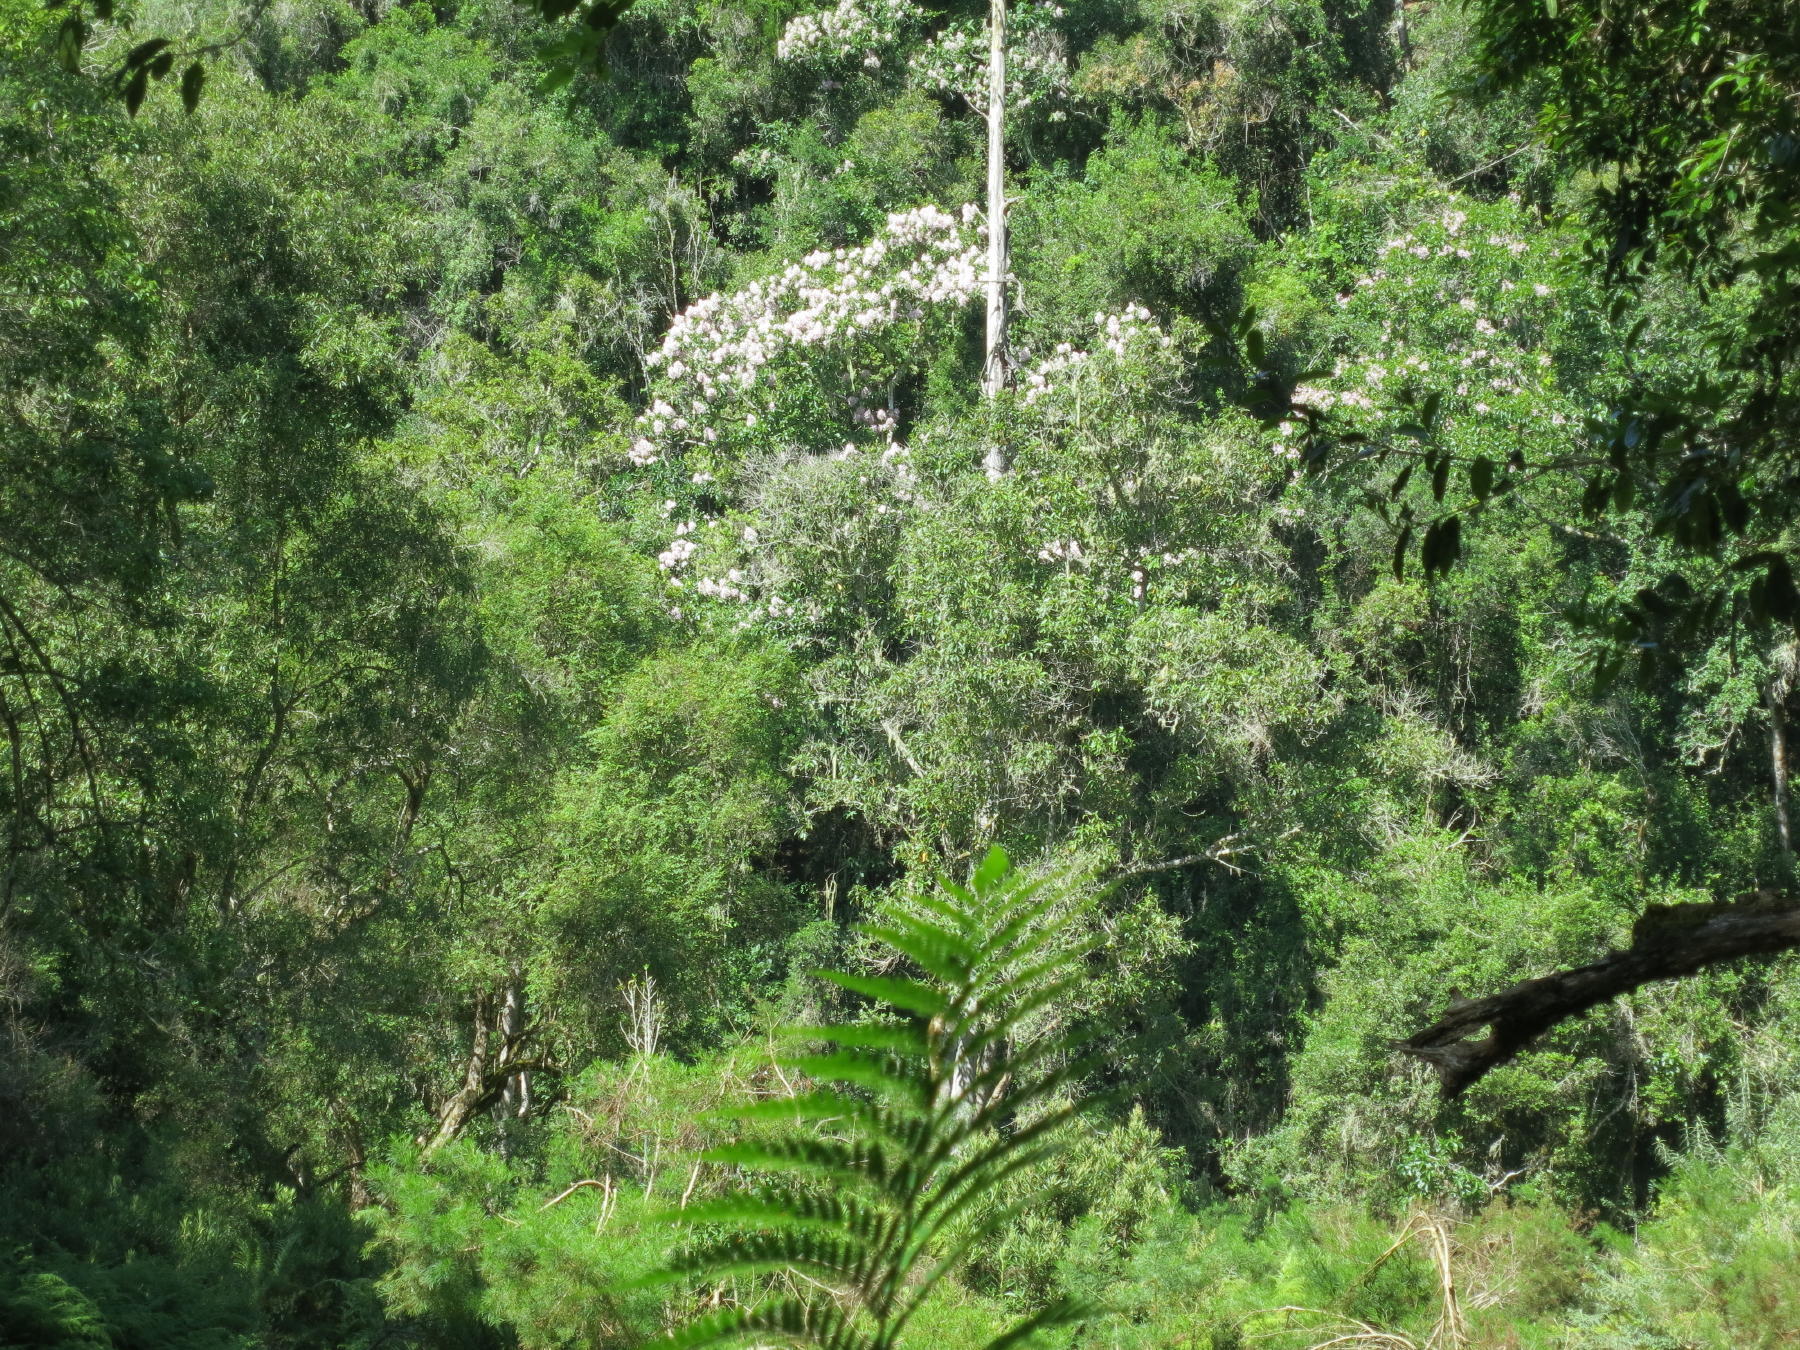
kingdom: Plantae
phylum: Tracheophyta
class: Magnoliopsida
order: Sapindales
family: Rutaceae
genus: Calodendrum
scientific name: Calodendrum capense
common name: Cape chestnut
